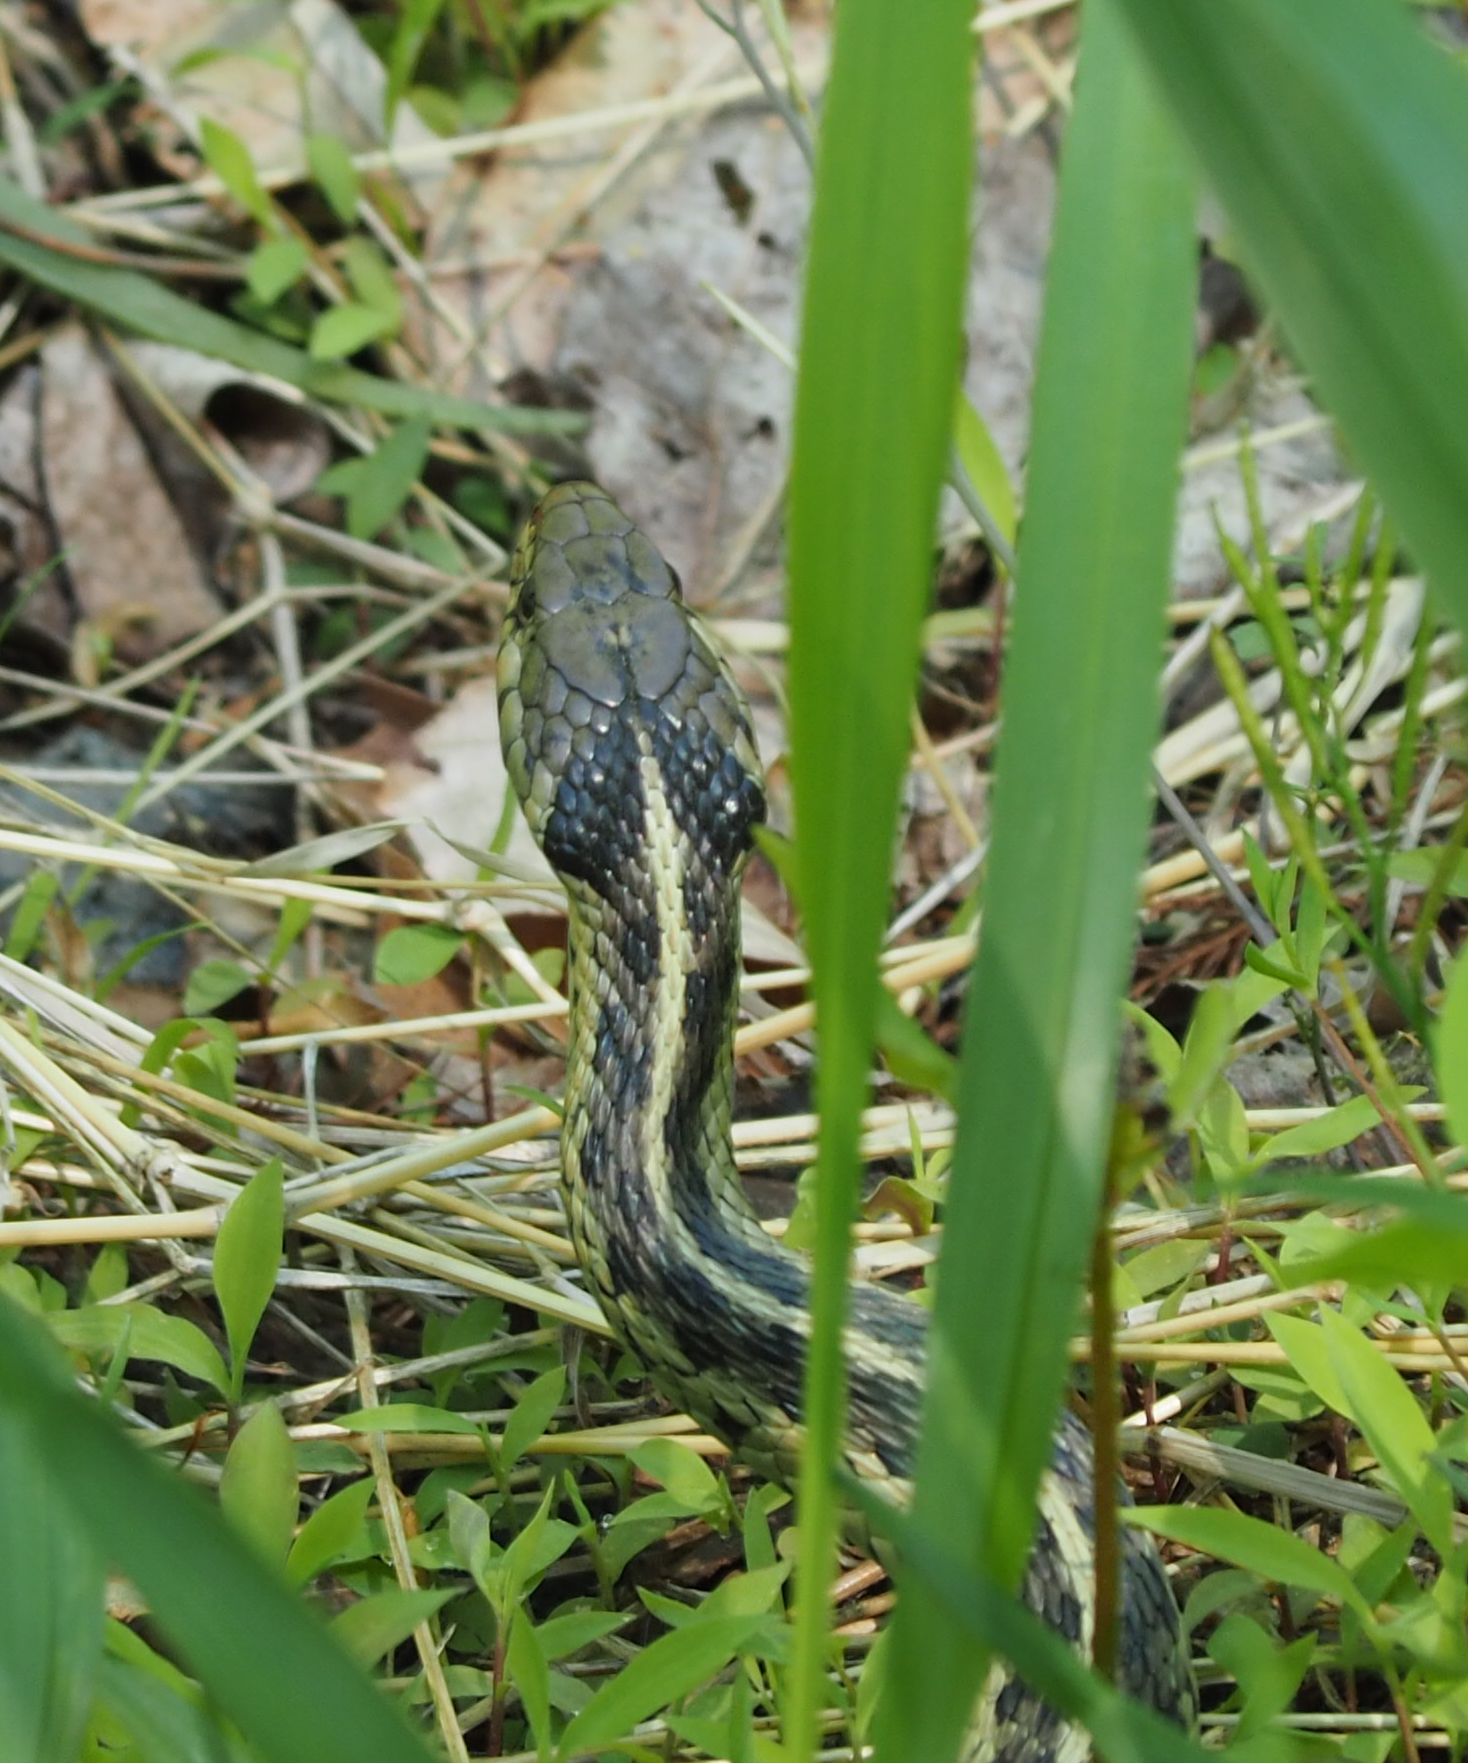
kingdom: Animalia
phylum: Chordata
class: Squamata
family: Colubridae
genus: Thamnophis
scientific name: Thamnophis sirtalis
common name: Common garter snake
